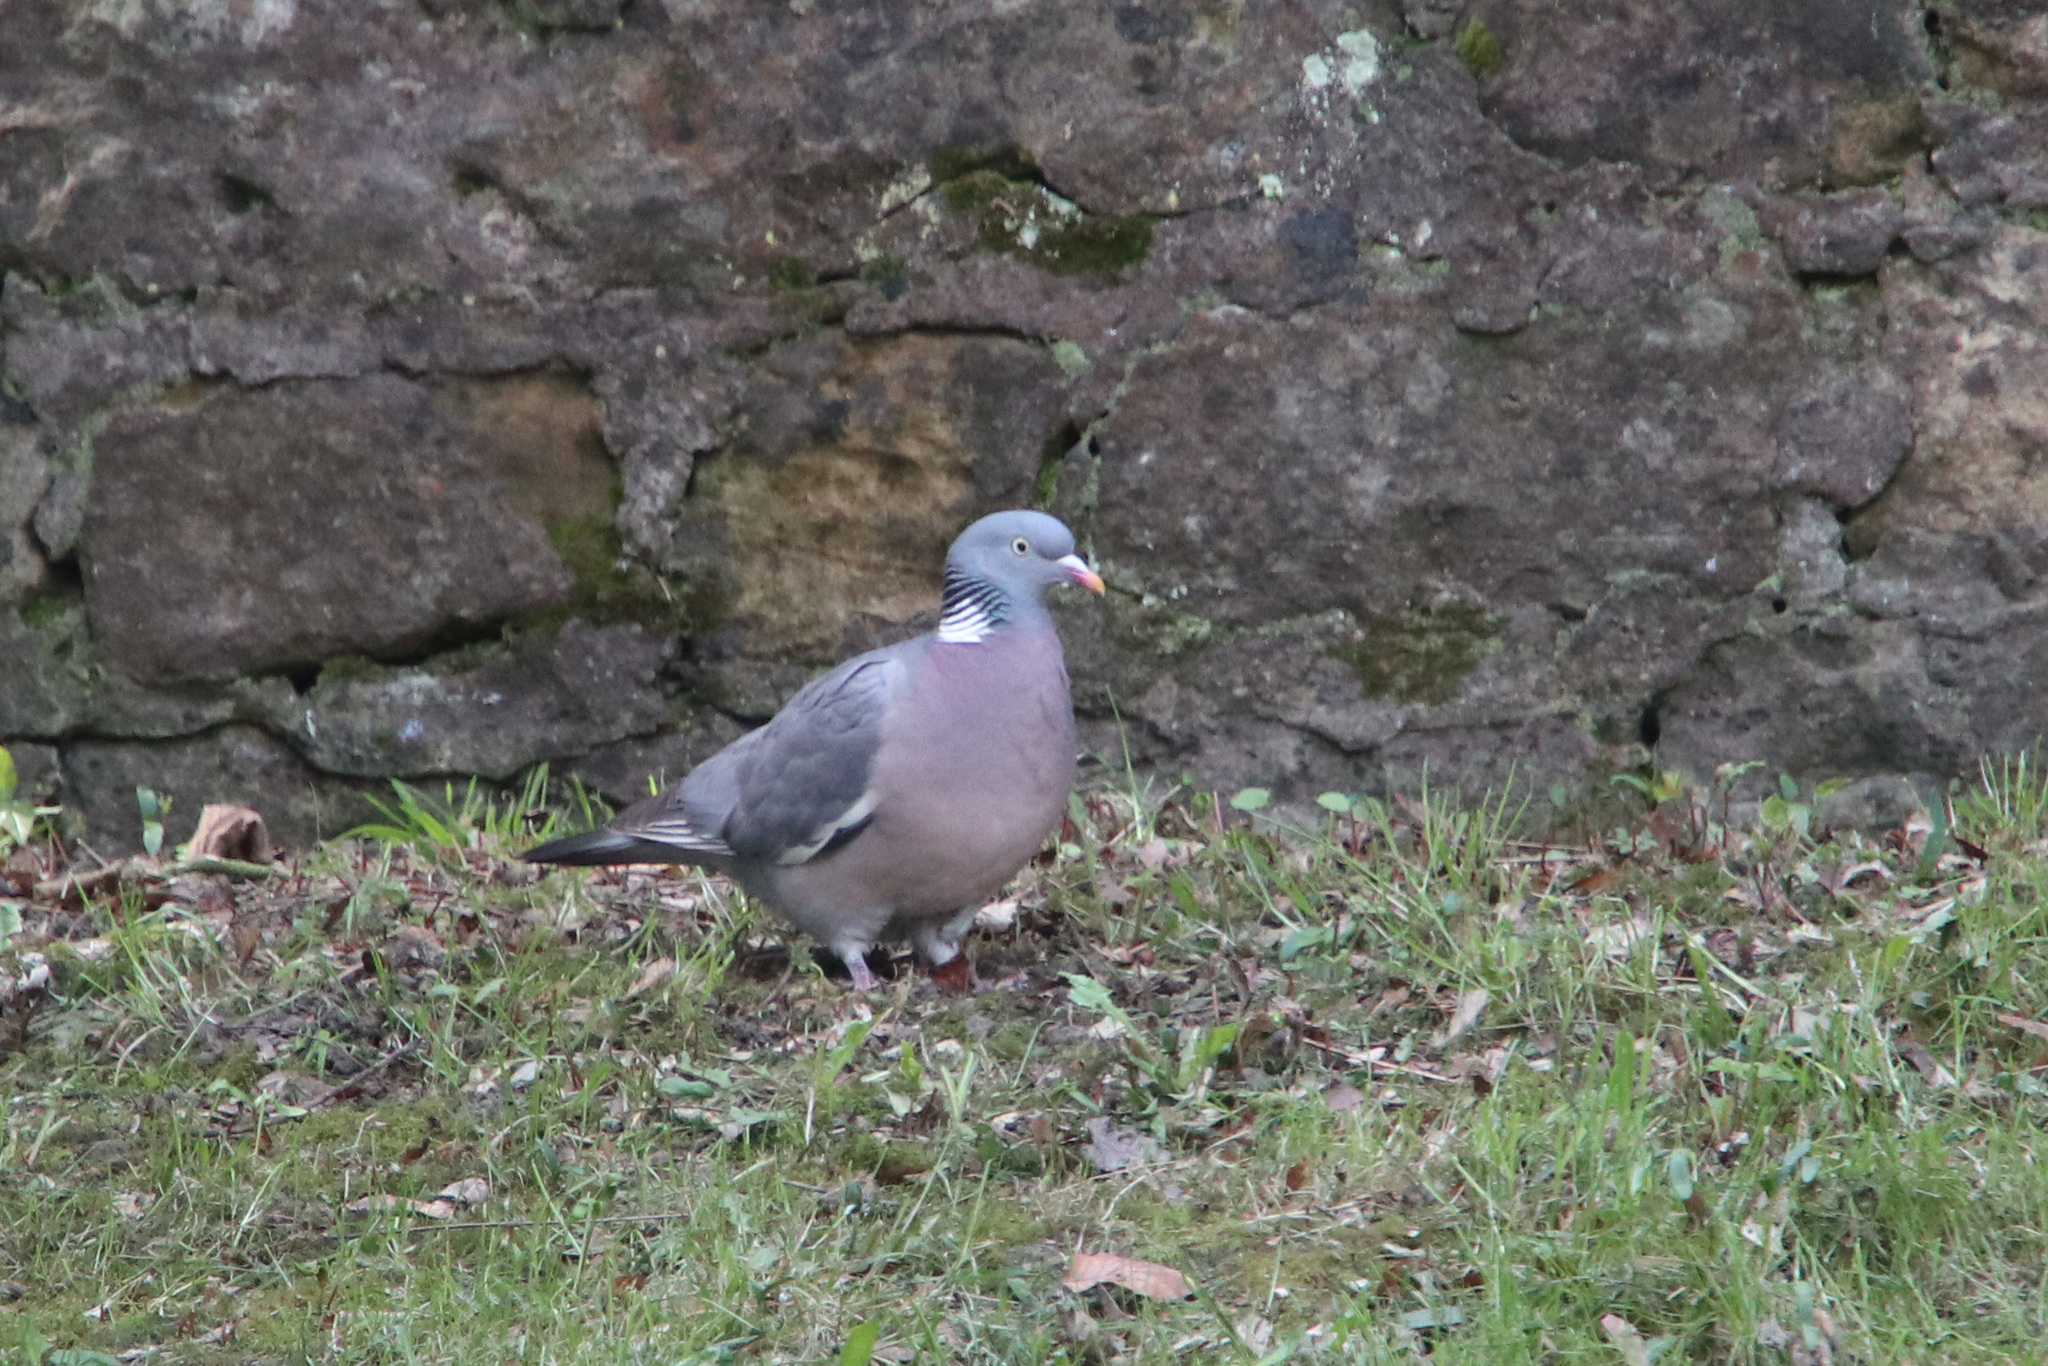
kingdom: Animalia
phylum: Chordata
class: Aves
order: Columbiformes
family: Columbidae
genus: Columba
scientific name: Columba palumbus
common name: Common wood pigeon
